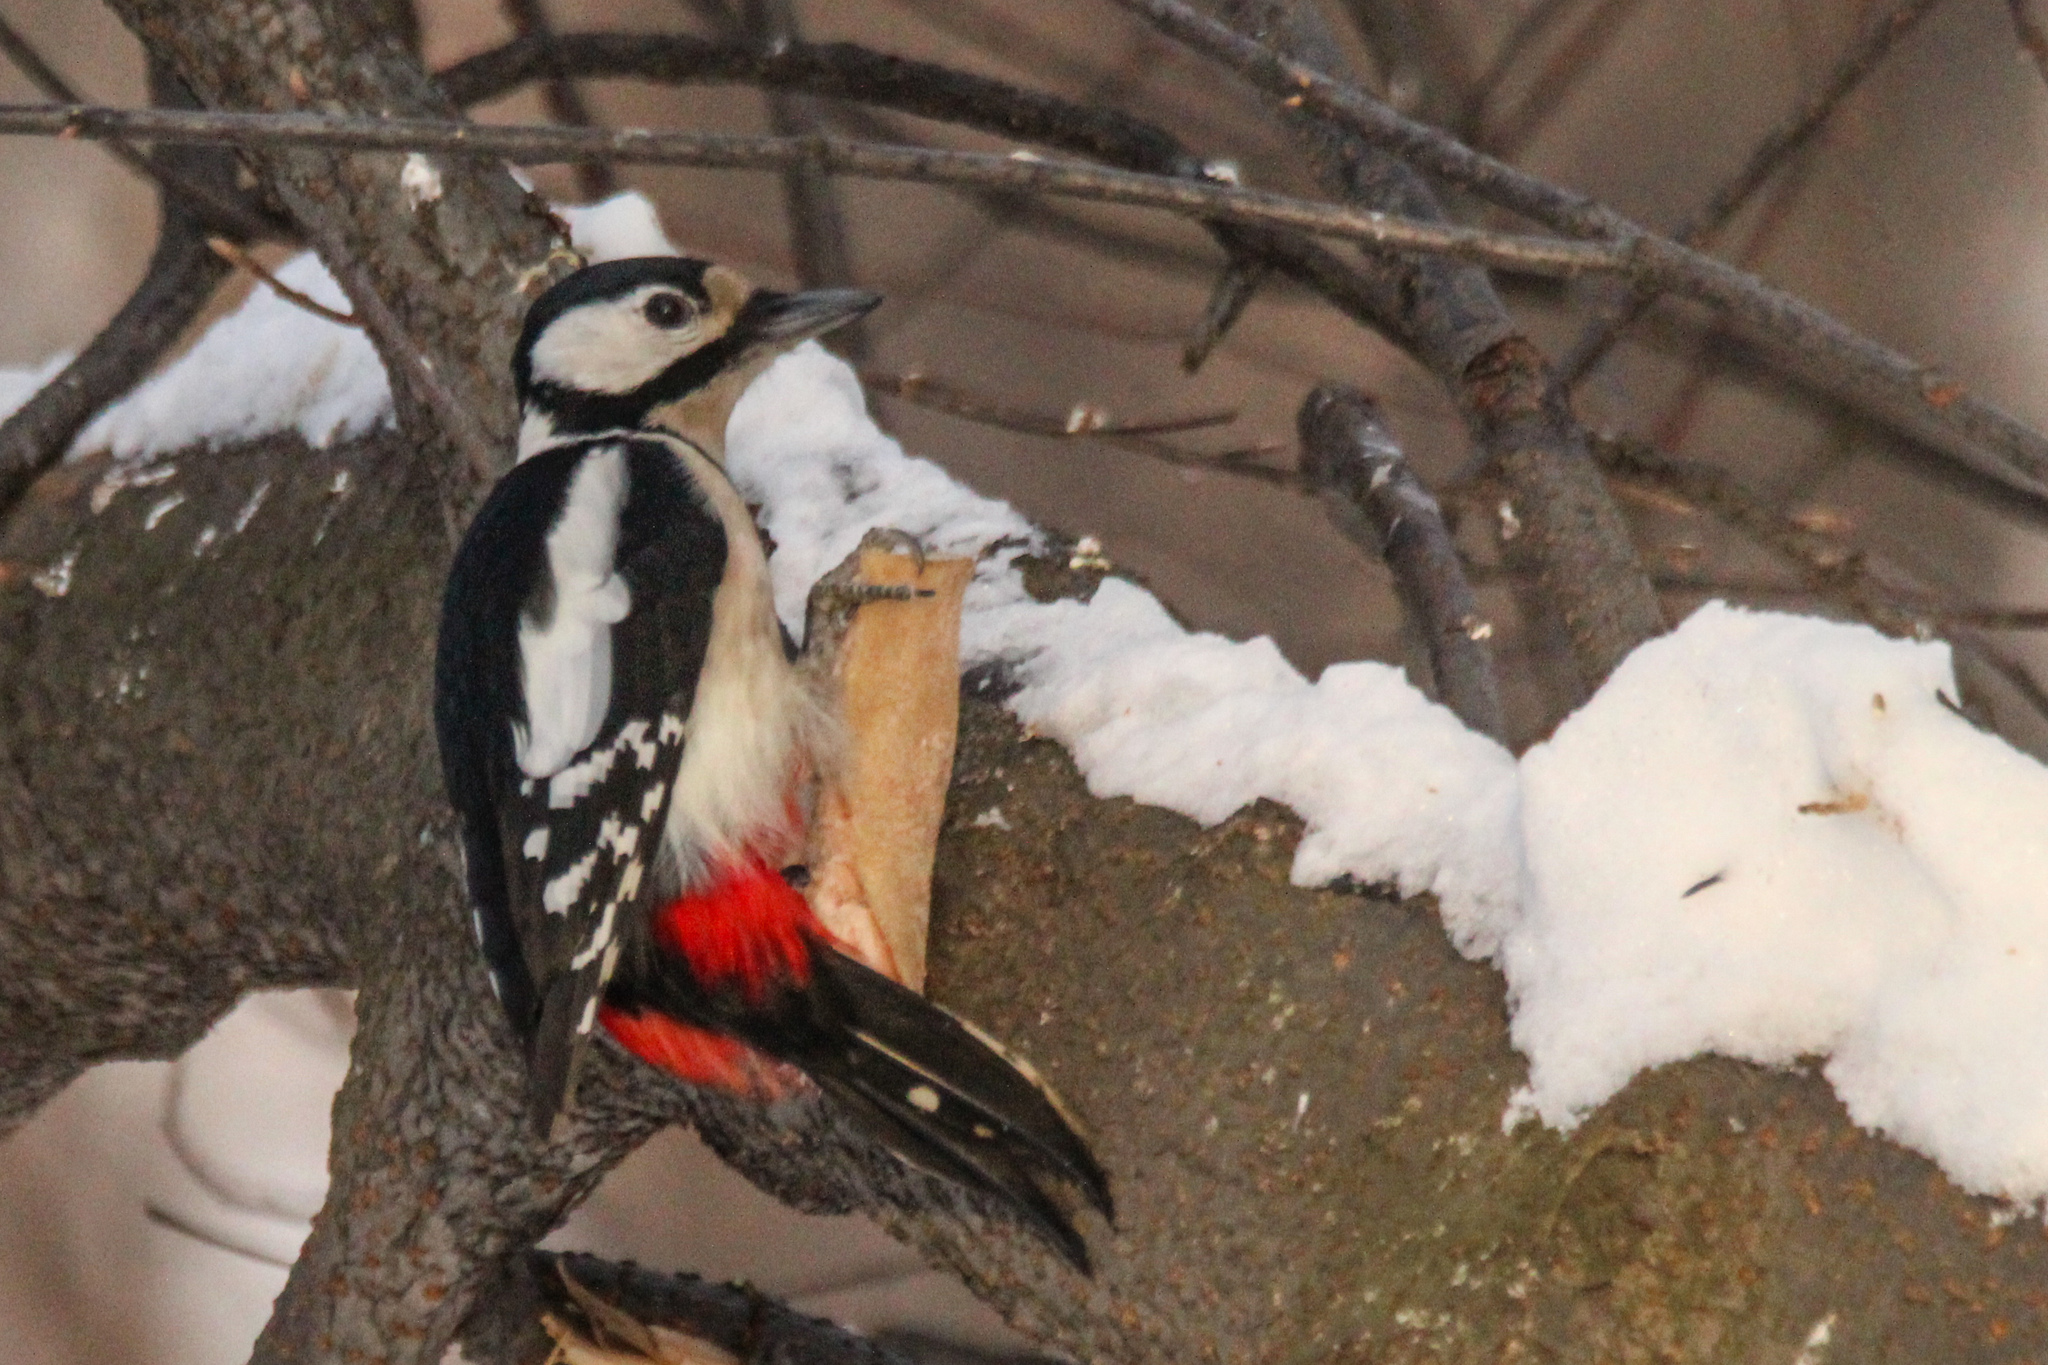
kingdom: Animalia
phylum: Chordata
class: Aves
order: Piciformes
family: Picidae
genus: Dendrocopos
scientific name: Dendrocopos major
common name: Great spotted woodpecker
